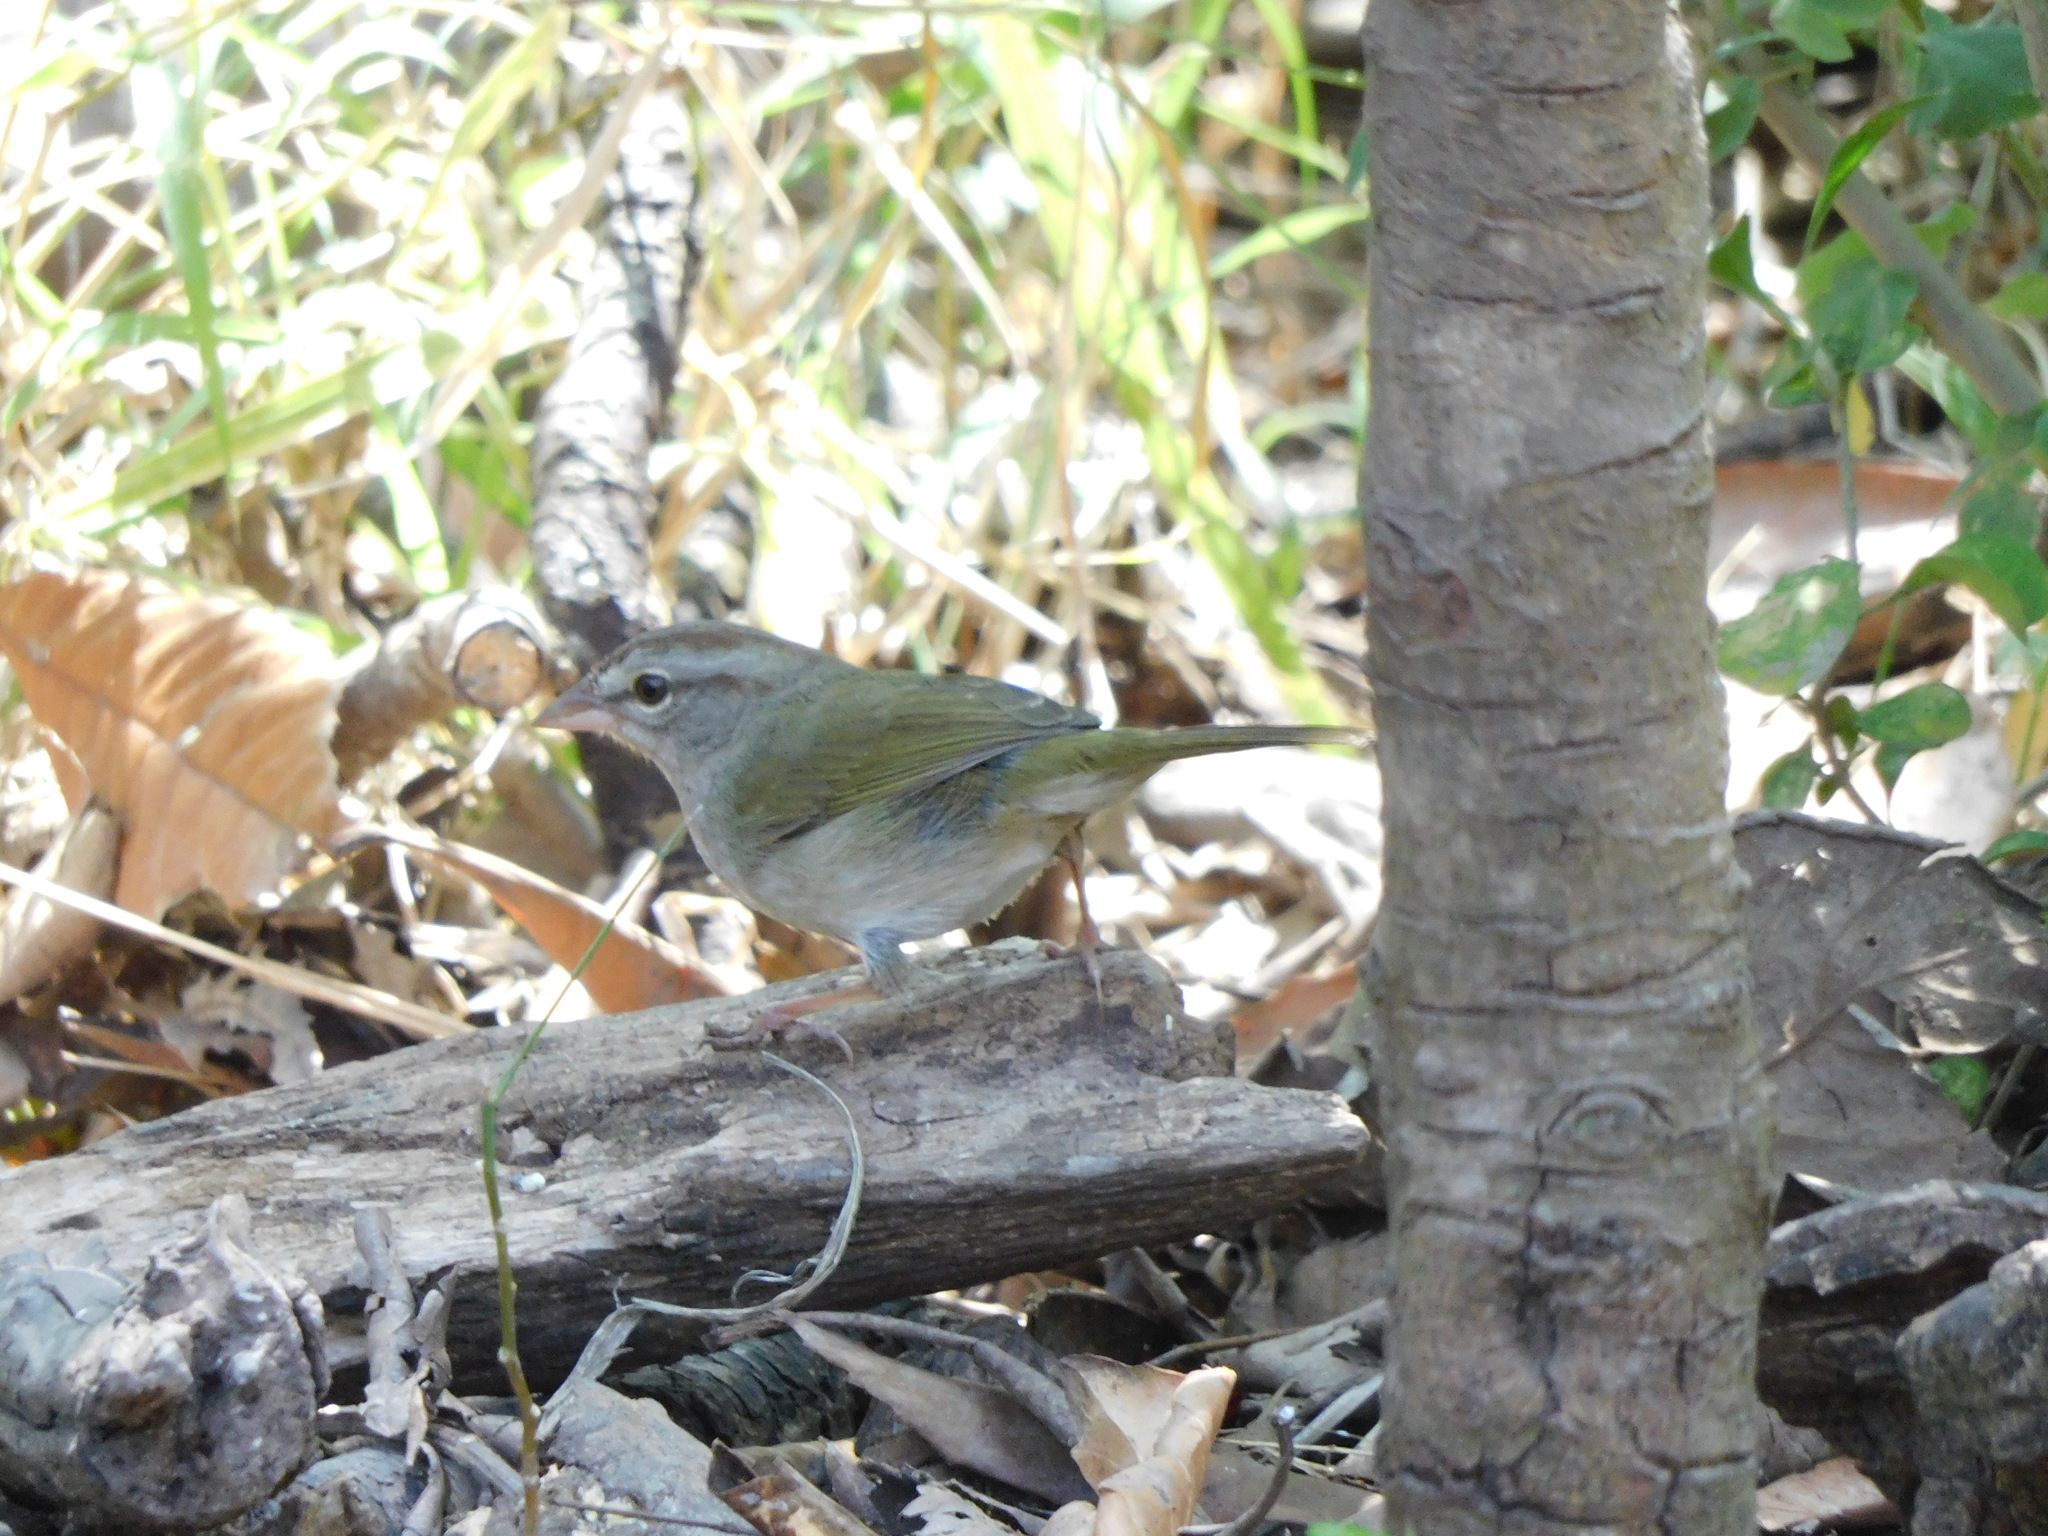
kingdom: Animalia
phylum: Chordata
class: Aves
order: Passeriformes
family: Passerellidae
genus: Arremonops
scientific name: Arremonops rufivirgatus
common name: Olive sparrow
